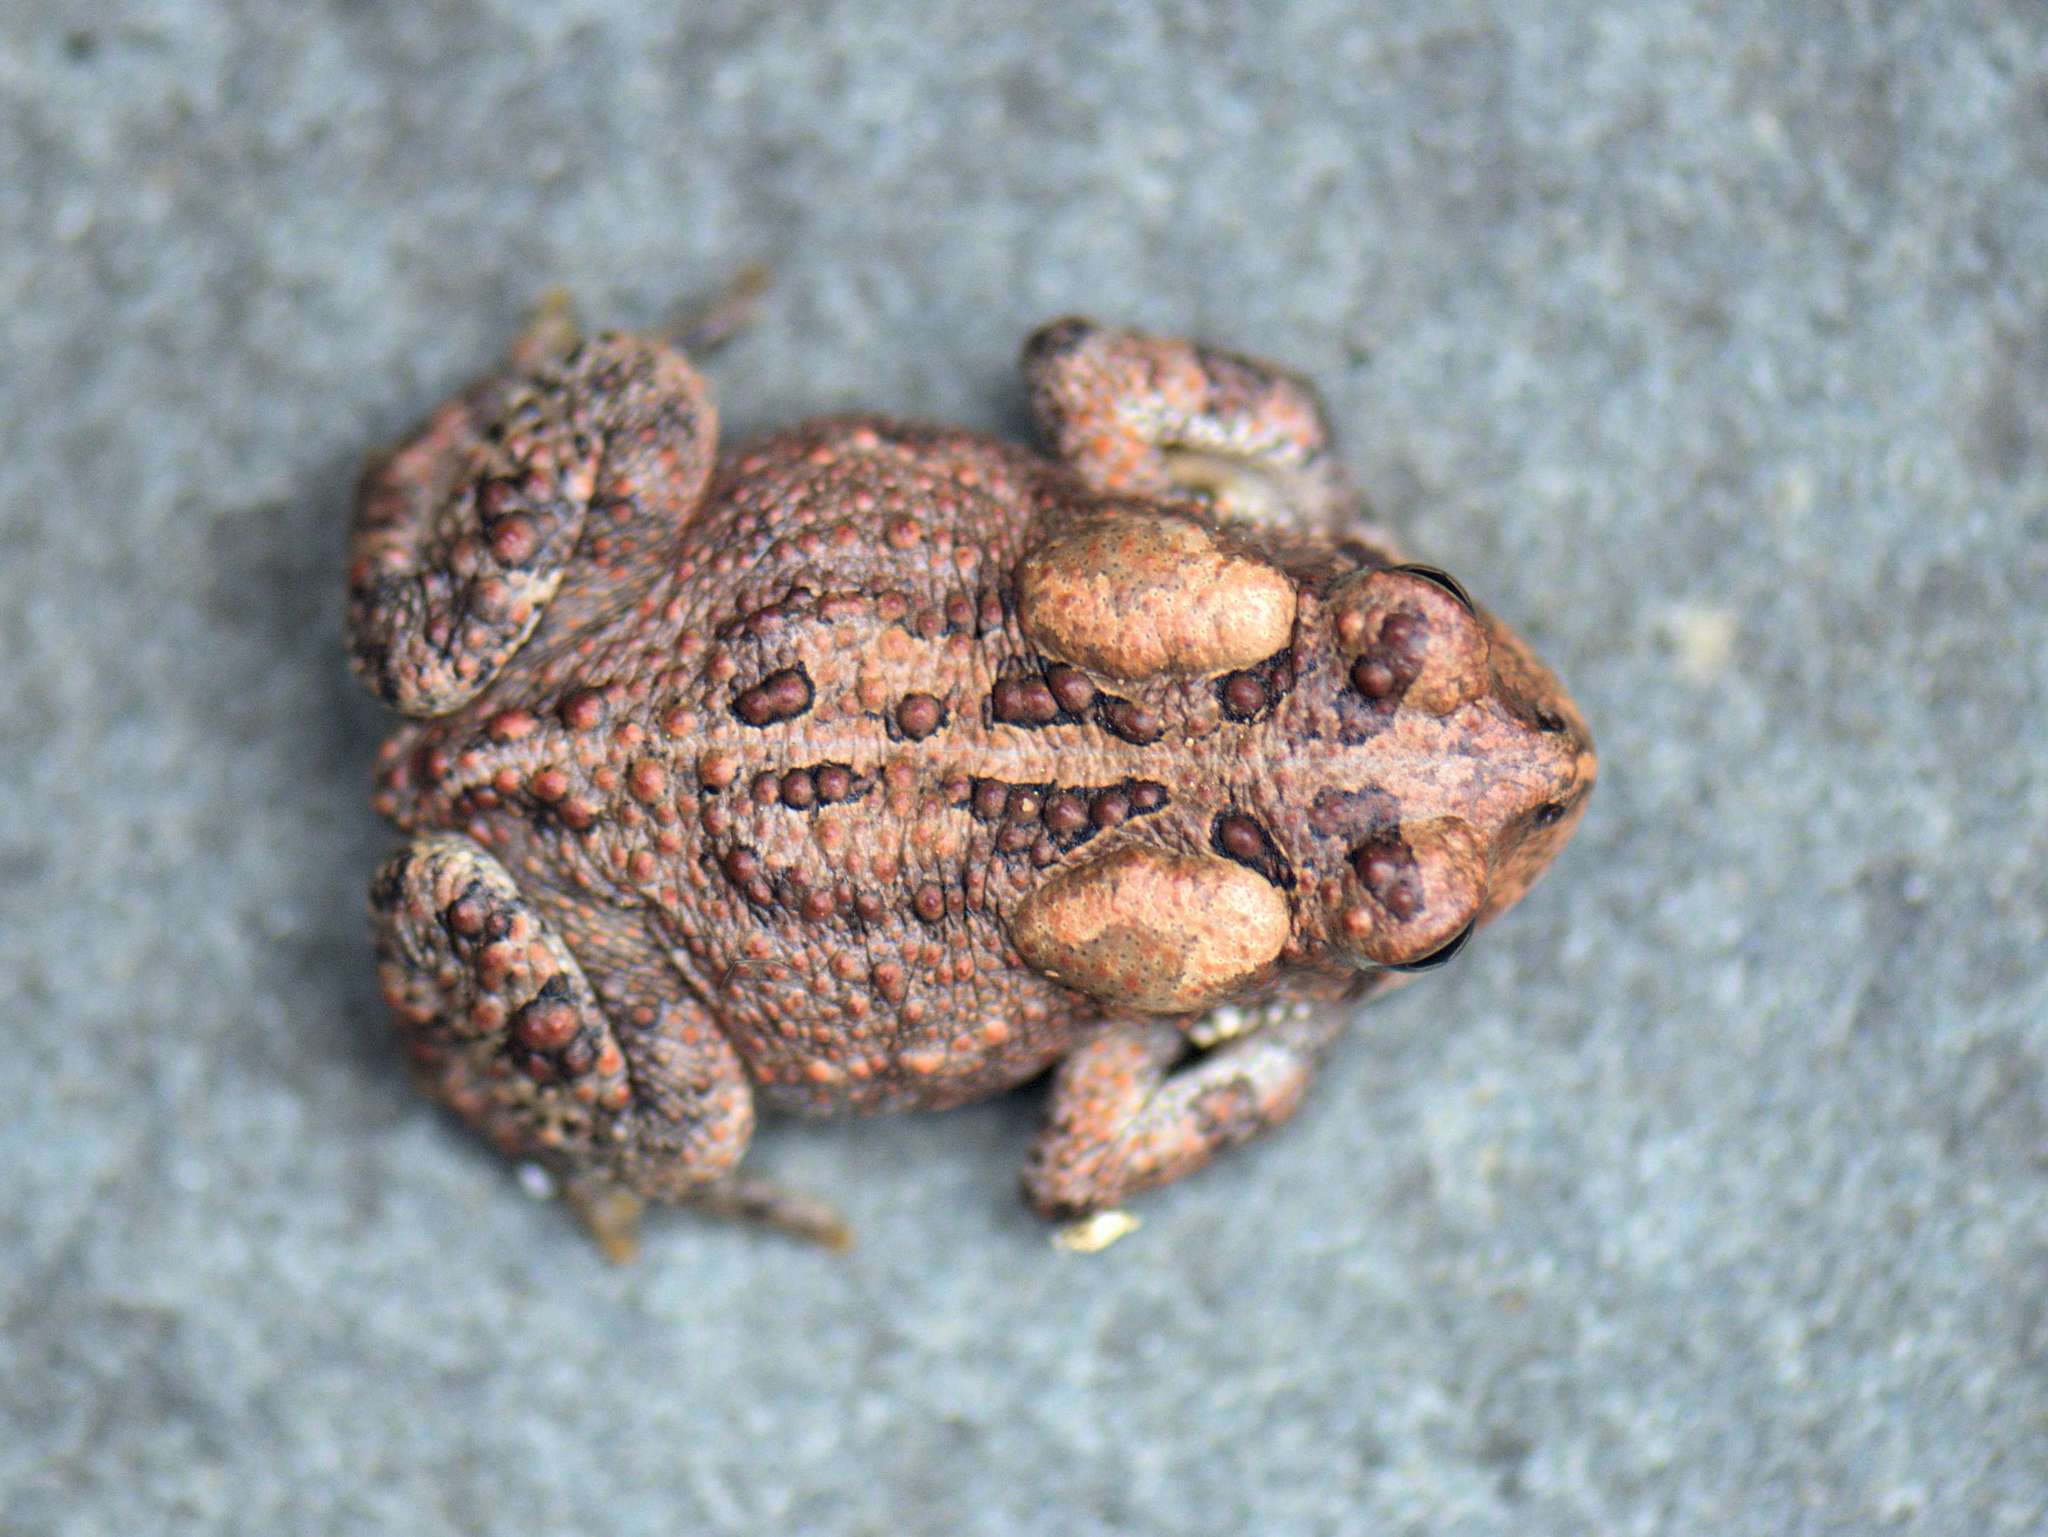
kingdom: Animalia
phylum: Chordata
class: Amphibia
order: Anura
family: Bufonidae
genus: Anaxyrus
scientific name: Anaxyrus fowleri
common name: Fowler's toad
